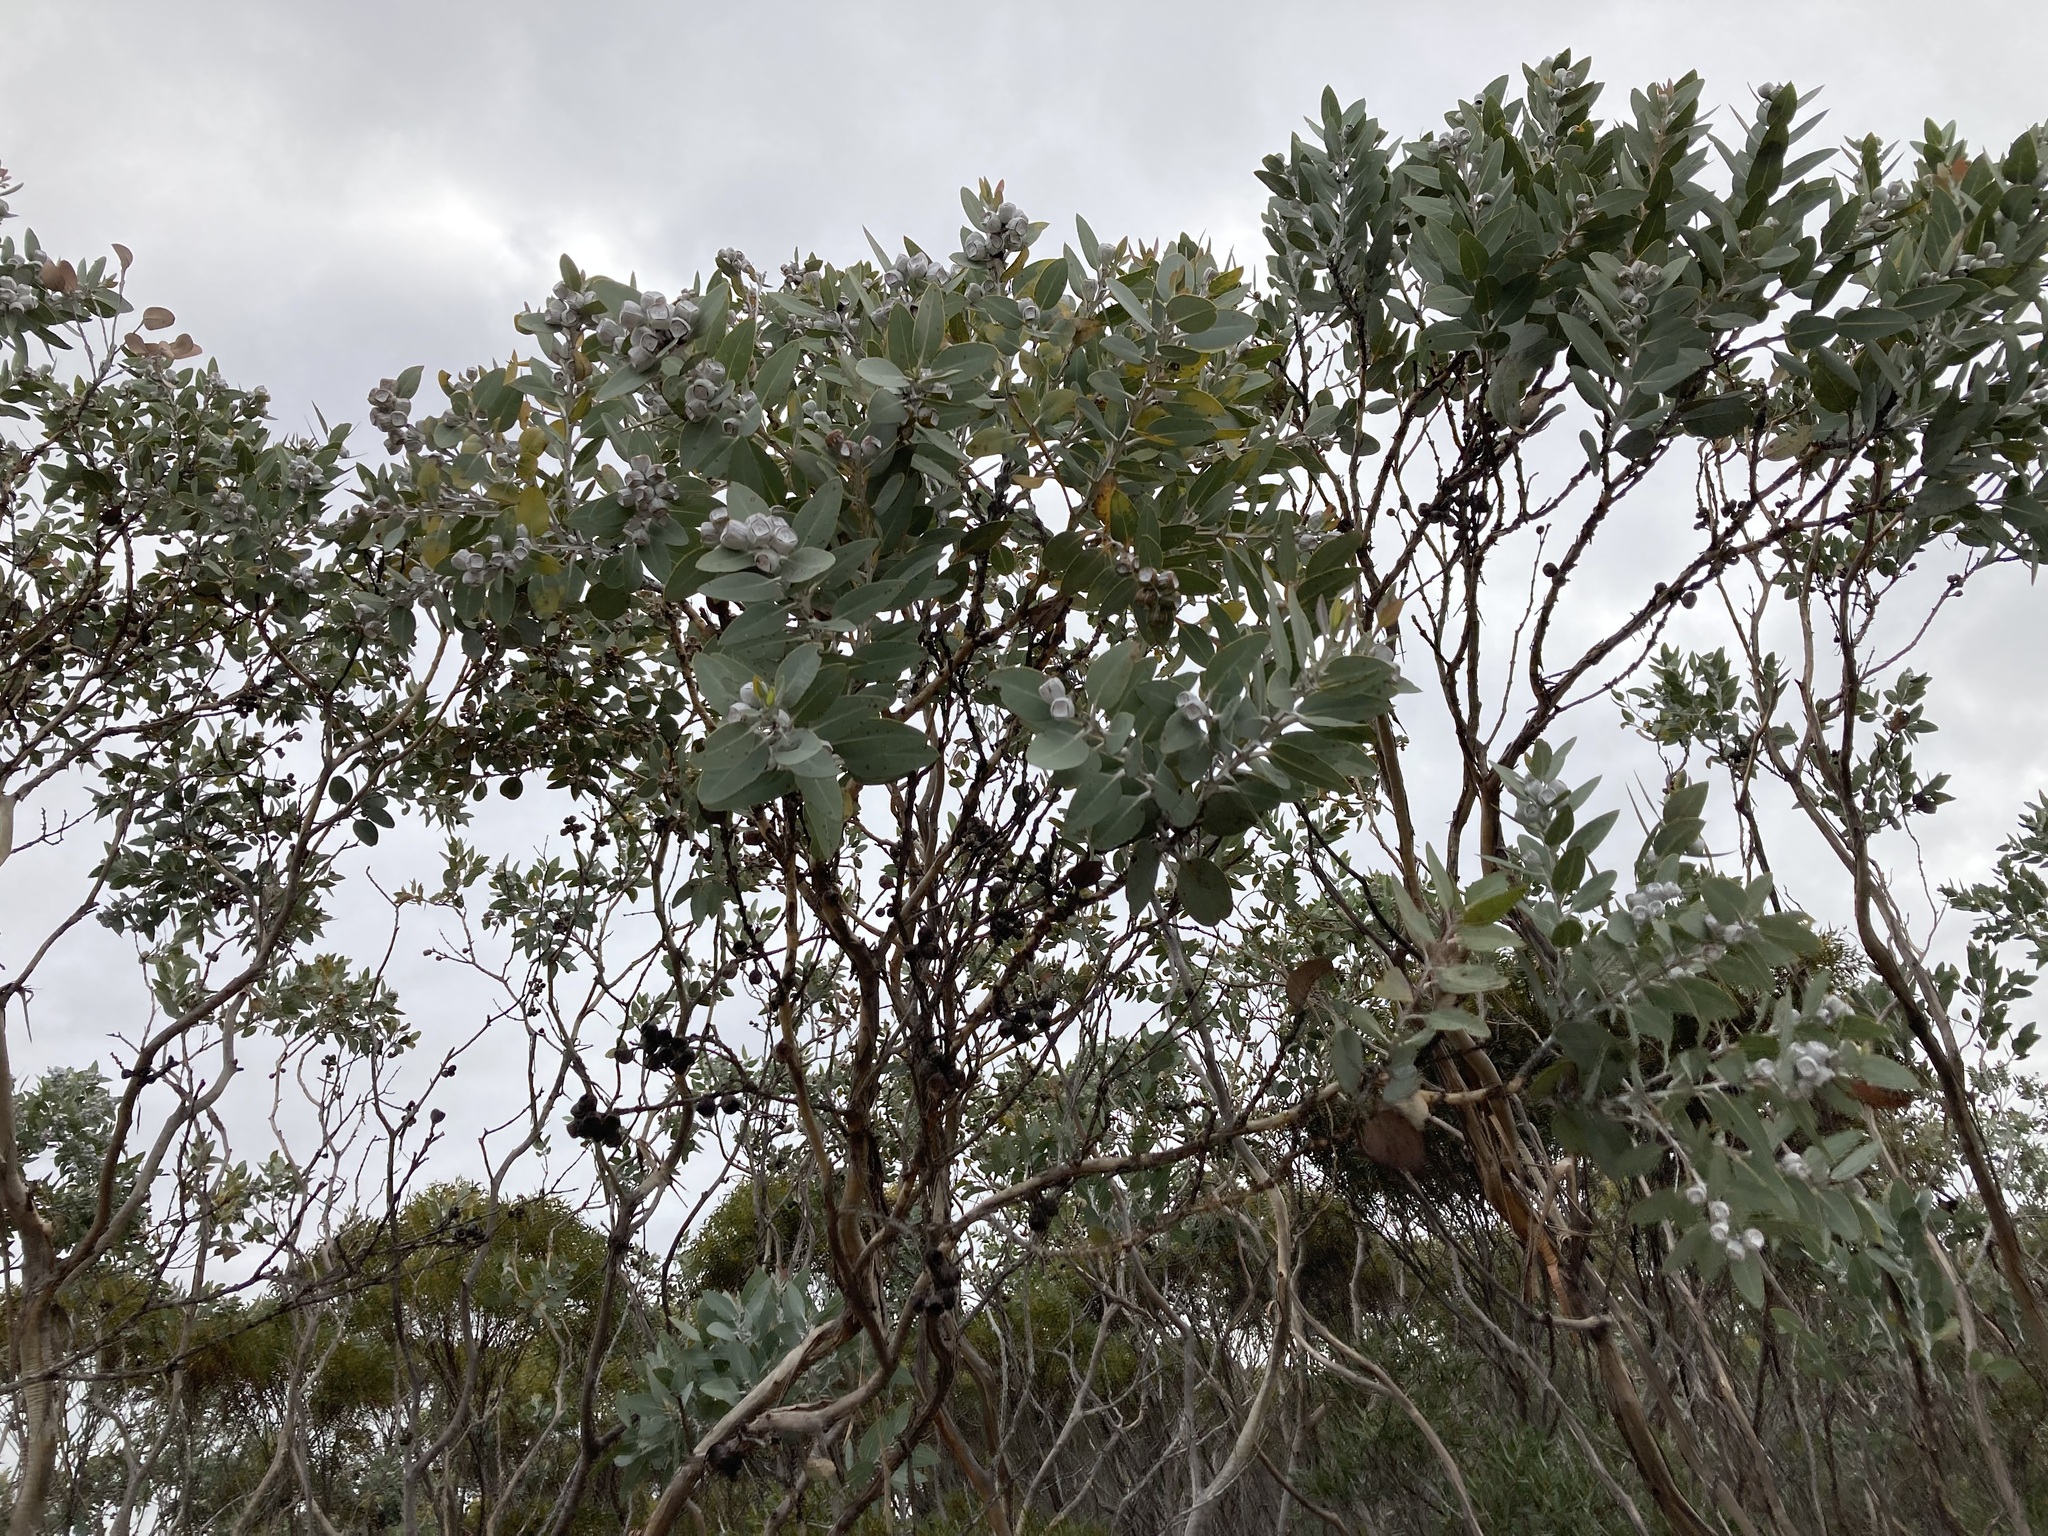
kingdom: Plantae
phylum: Tracheophyta
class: Magnoliopsida
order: Myrtales
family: Myrtaceae
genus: Eucalyptus
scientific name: Eucalyptus tetragona
